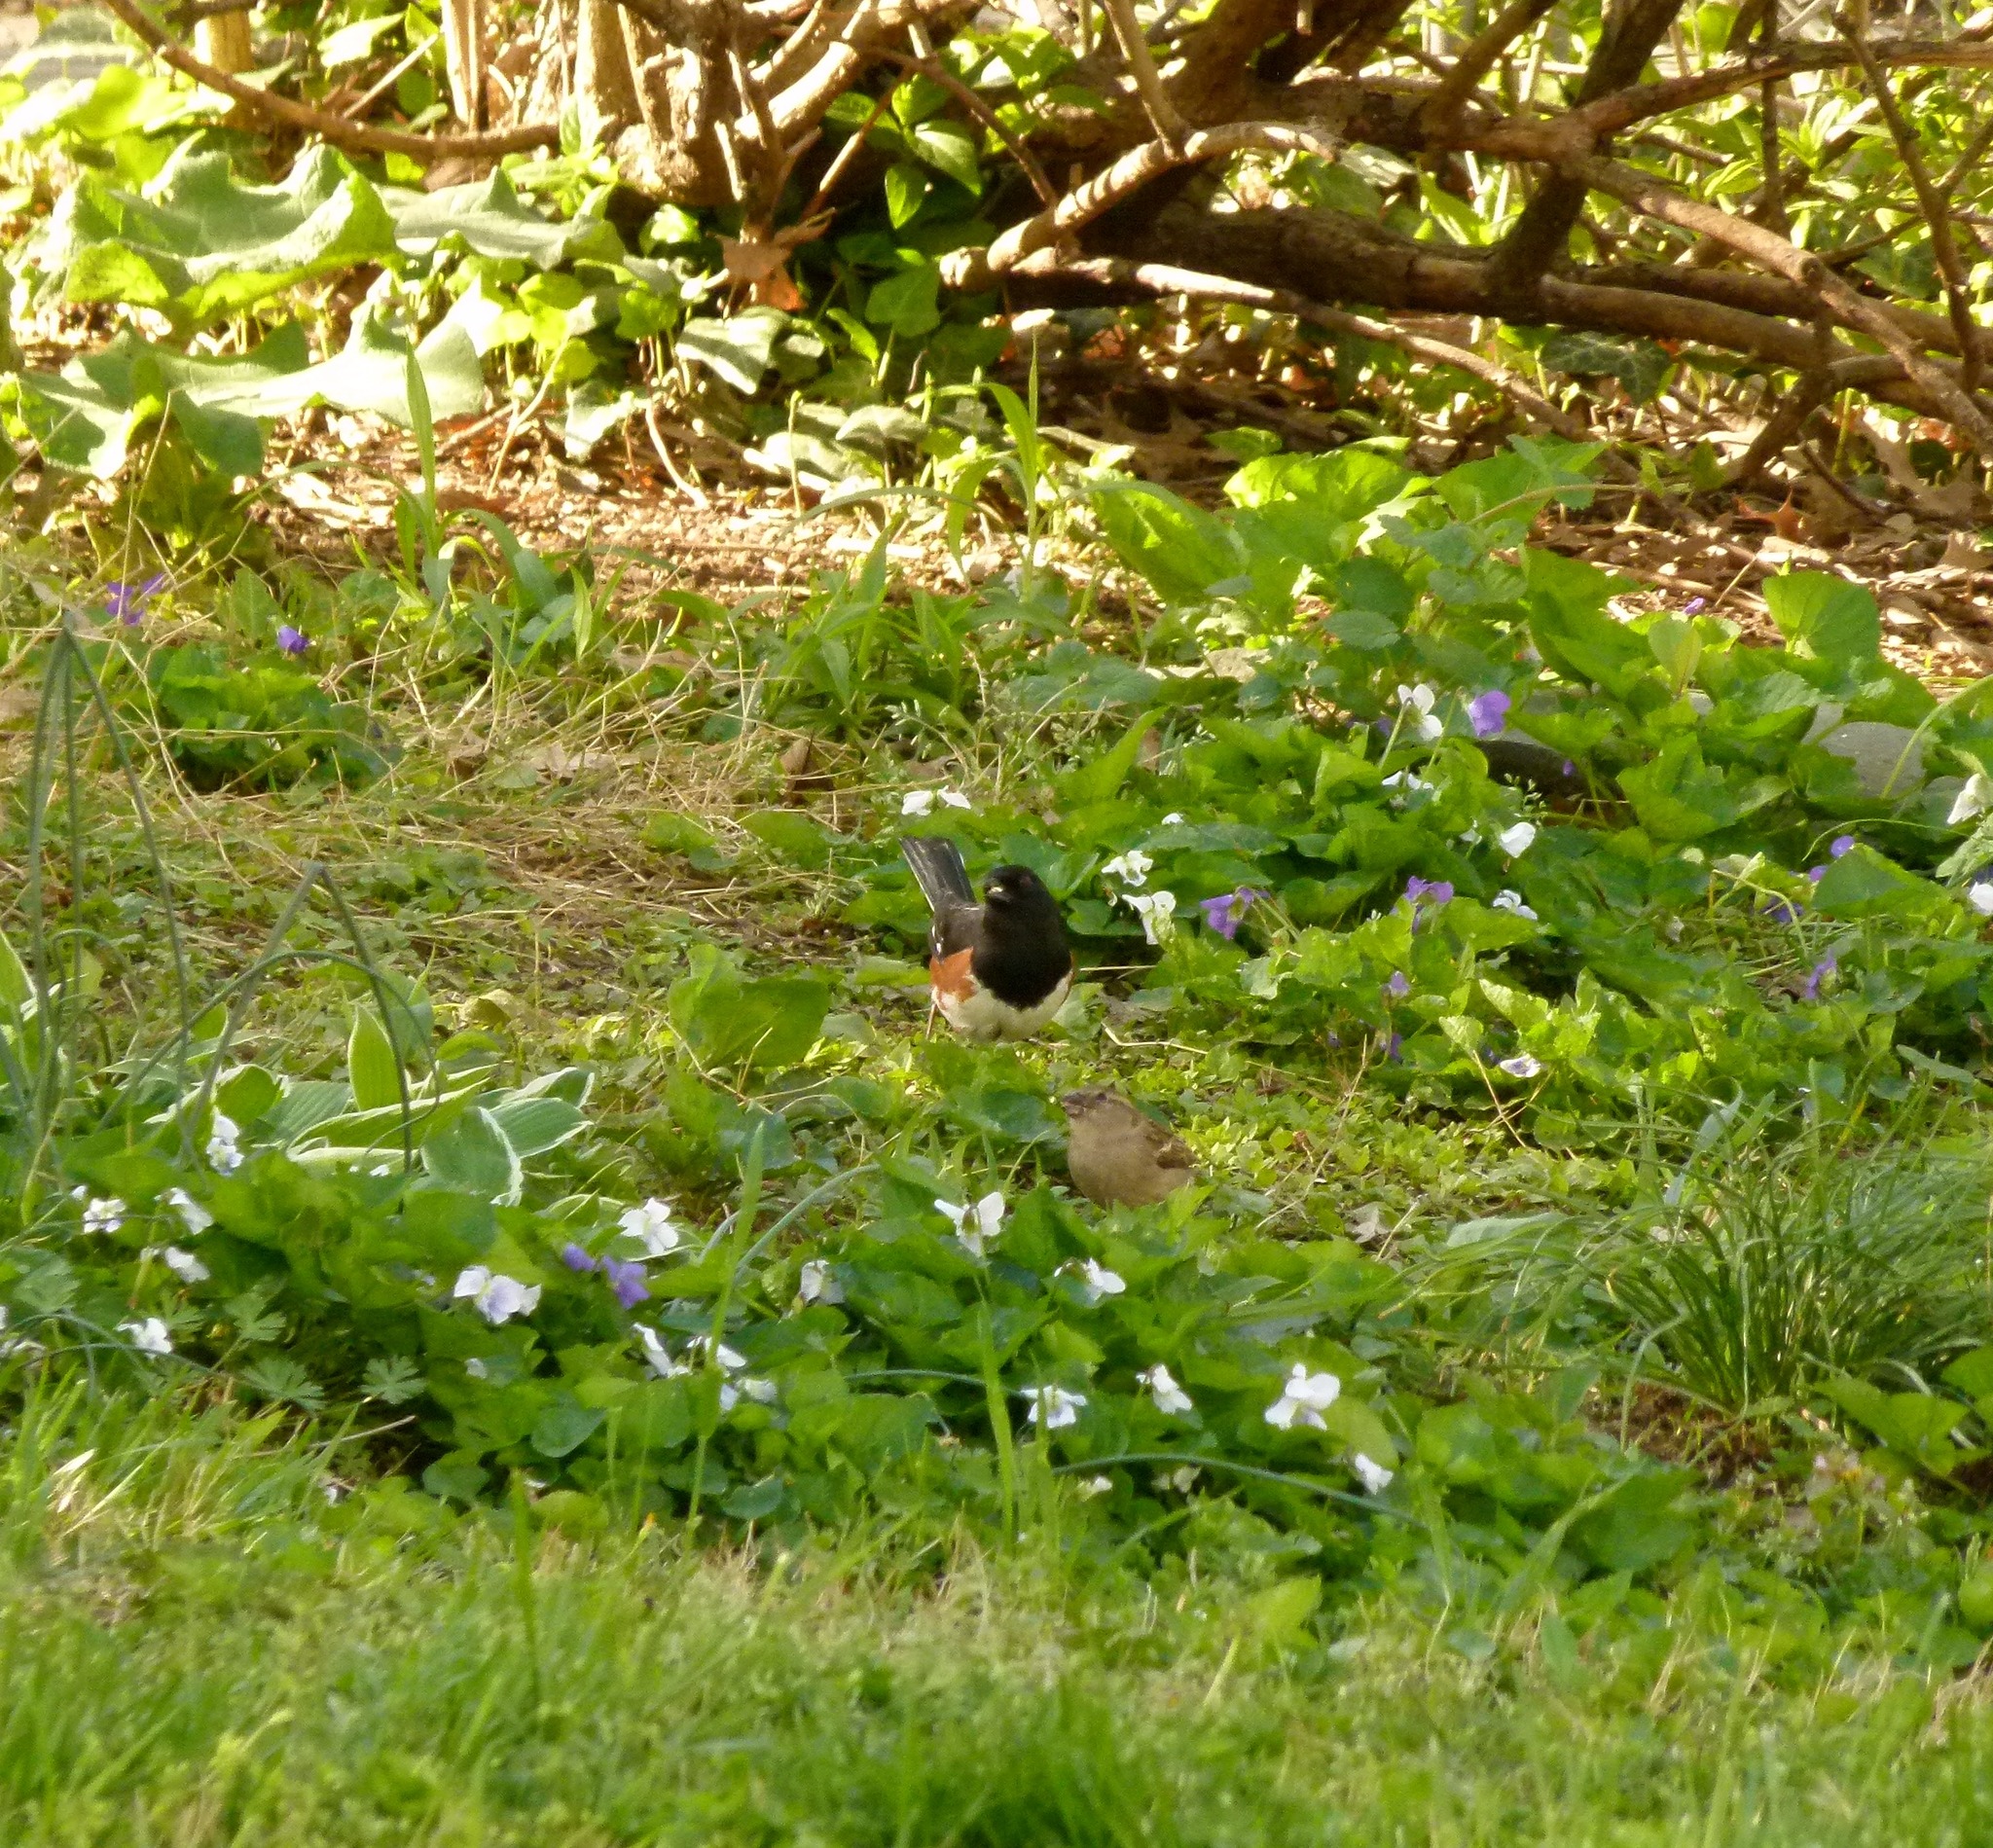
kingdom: Animalia
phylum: Chordata
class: Aves
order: Passeriformes
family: Passerellidae
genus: Pipilo
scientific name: Pipilo erythrophthalmus
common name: Eastern towhee
